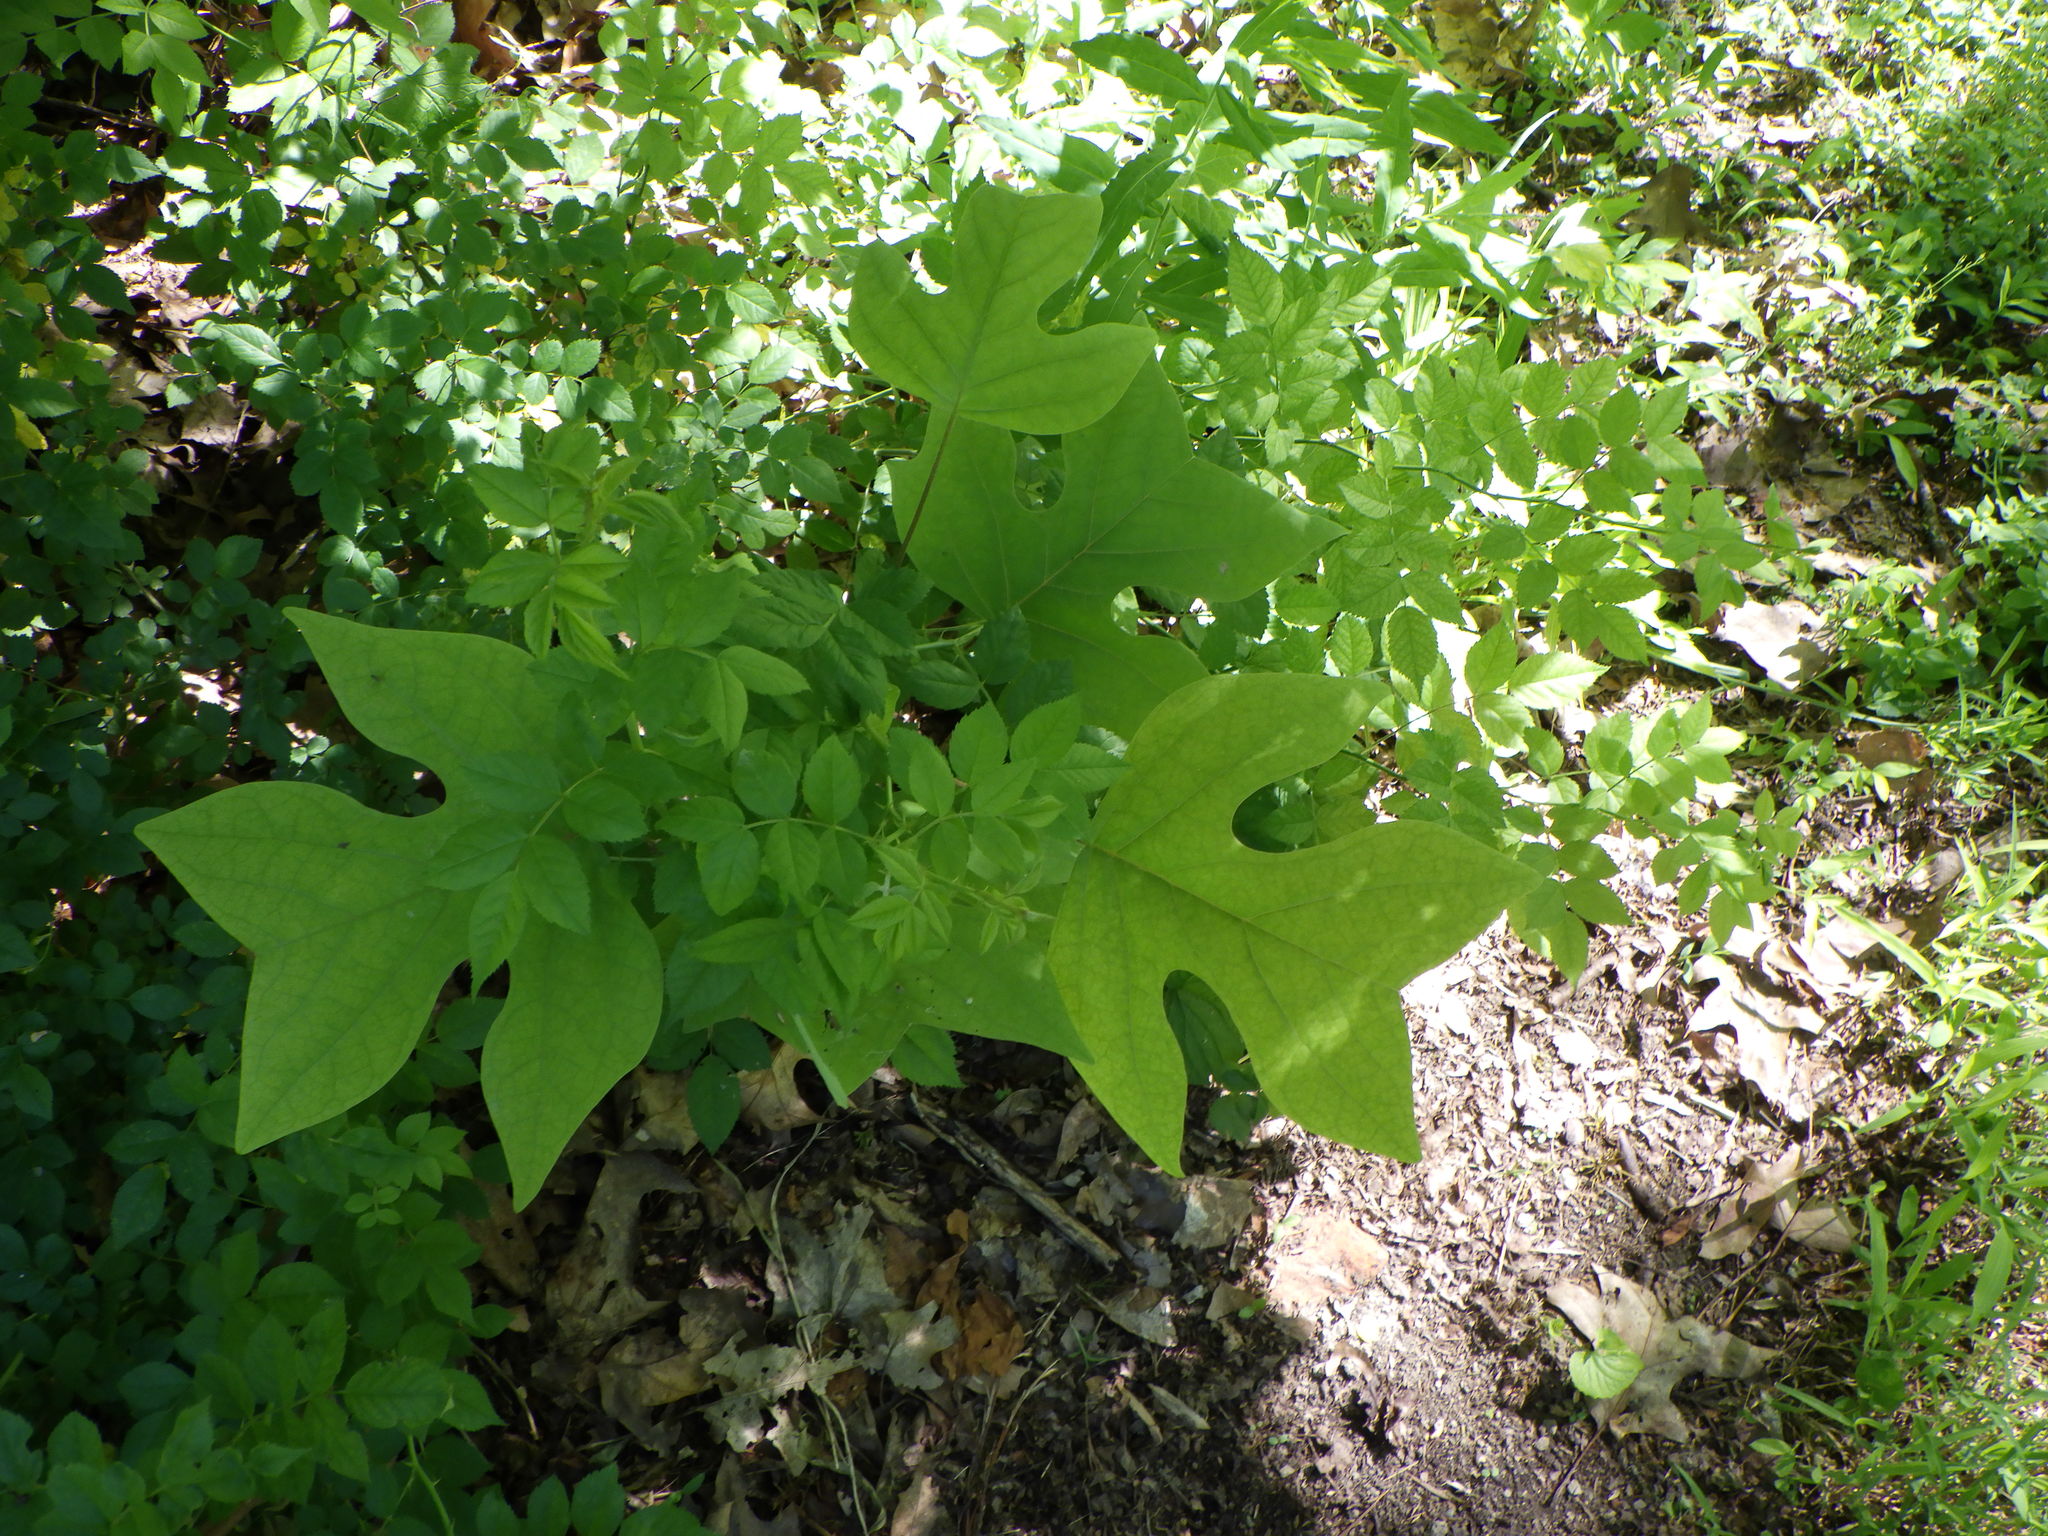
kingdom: Plantae
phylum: Tracheophyta
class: Magnoliopsida
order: Magnoliales
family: Magnoliaceae
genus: Liriodendron
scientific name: Liriodendron tulipifera
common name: Tulip tree
